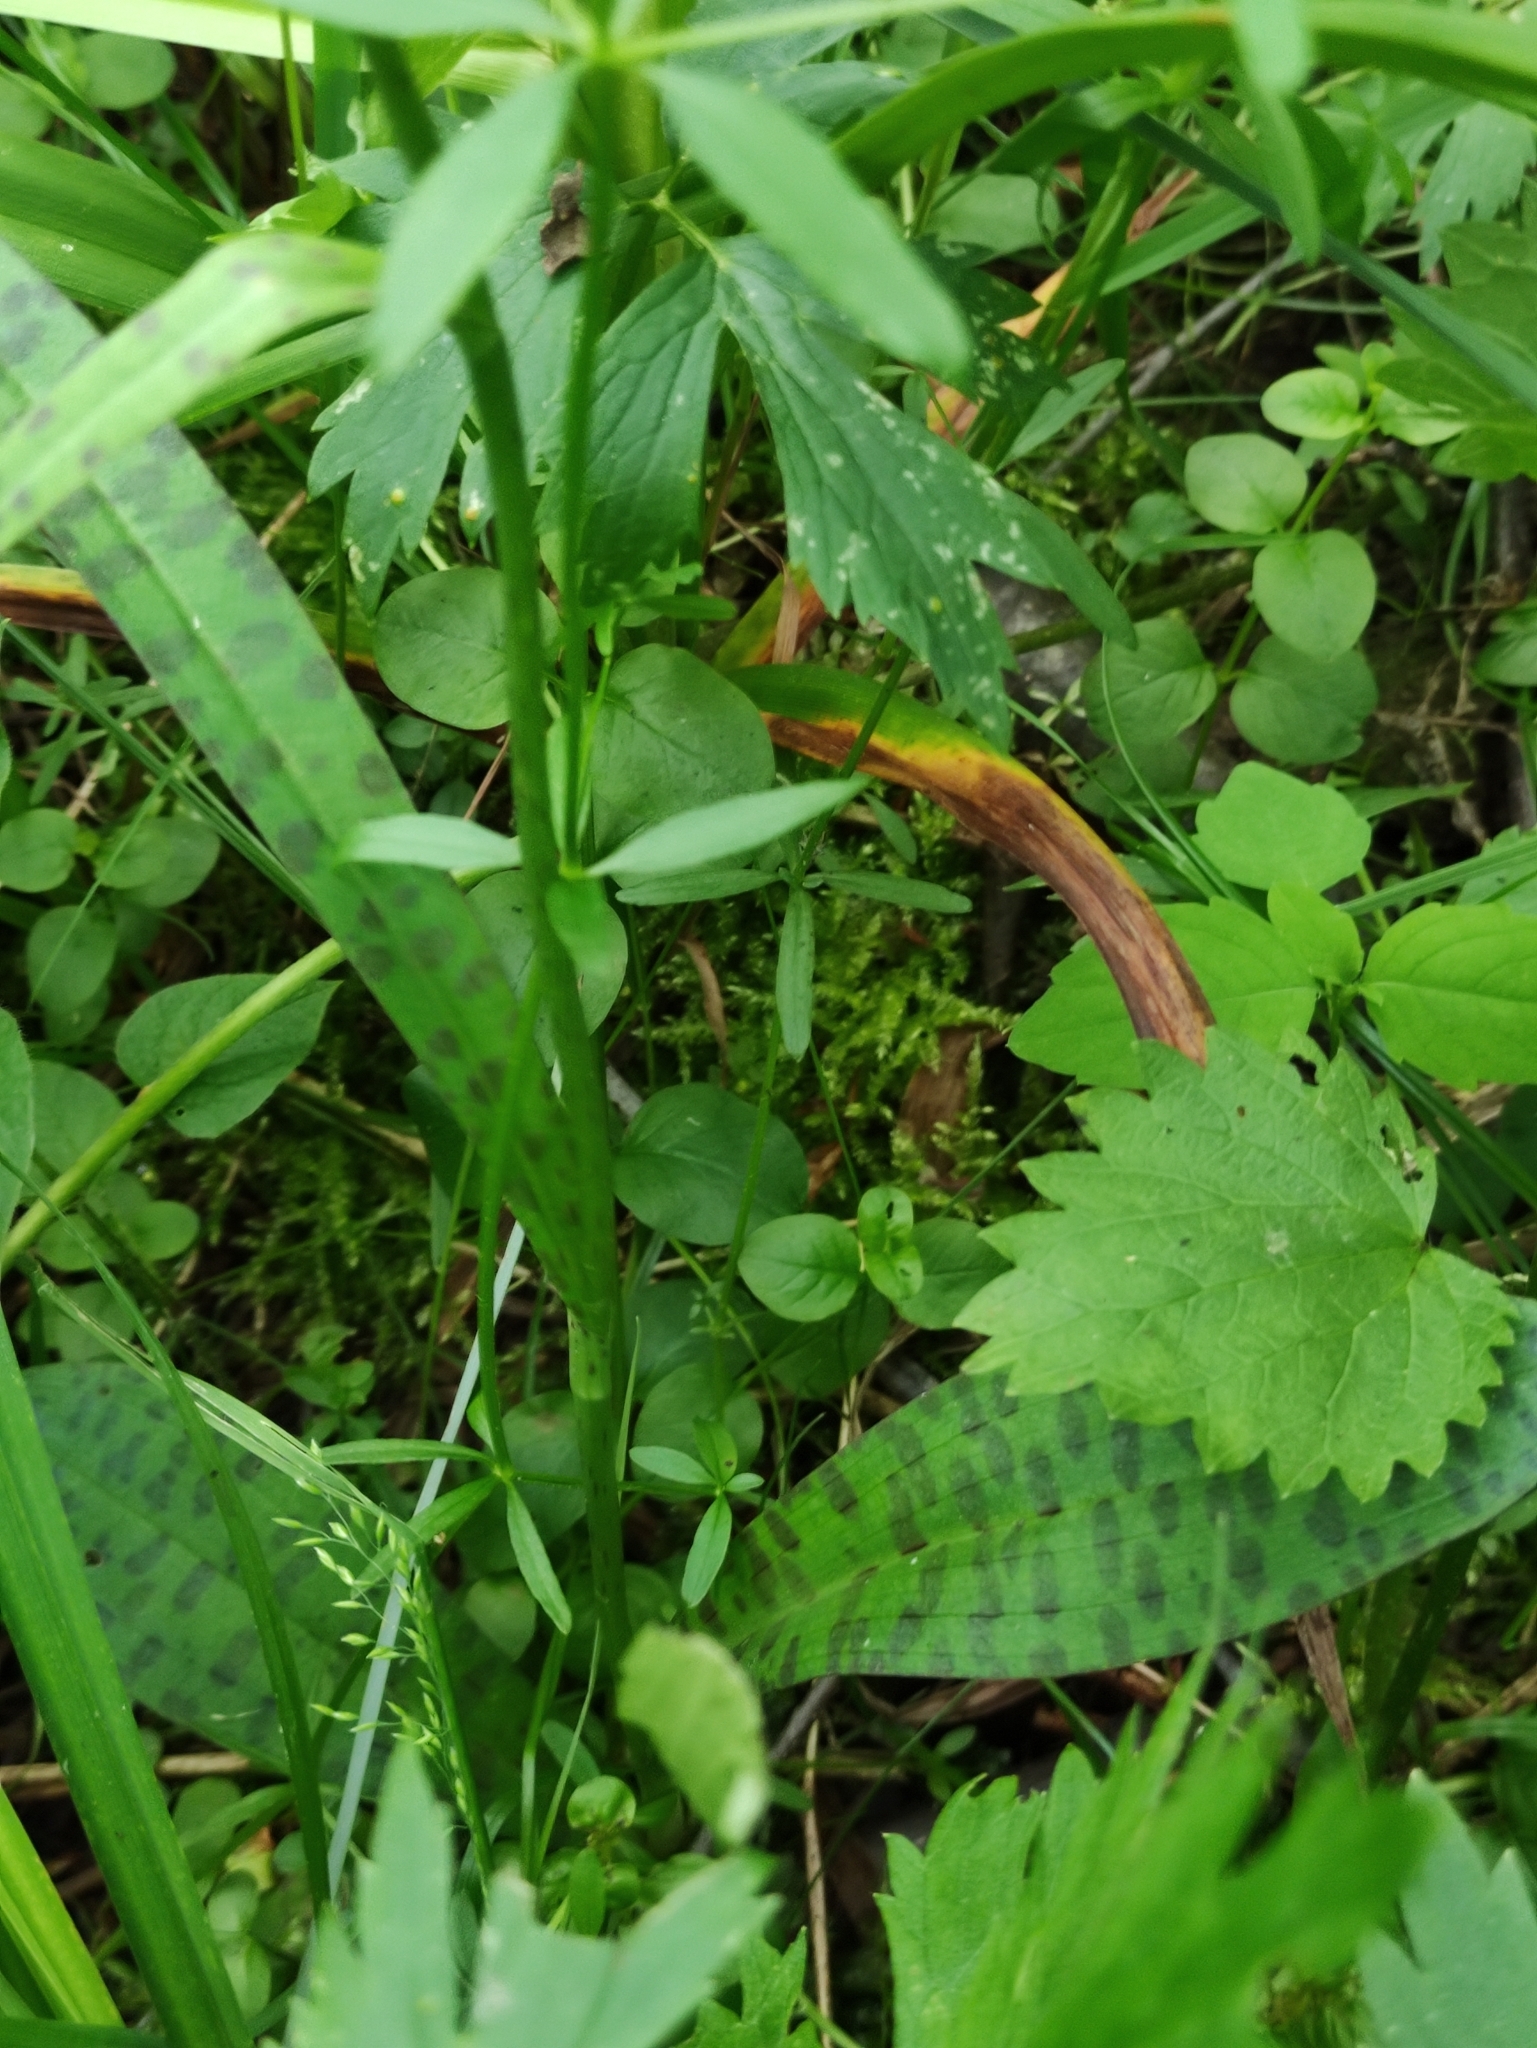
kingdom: Plantae
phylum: Tracheophyta
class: Liliopsida
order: Asparagales
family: Orchidaceae
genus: Dactylorhiza
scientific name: Dactylorhiza maculata
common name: Heath spotted-orchid
